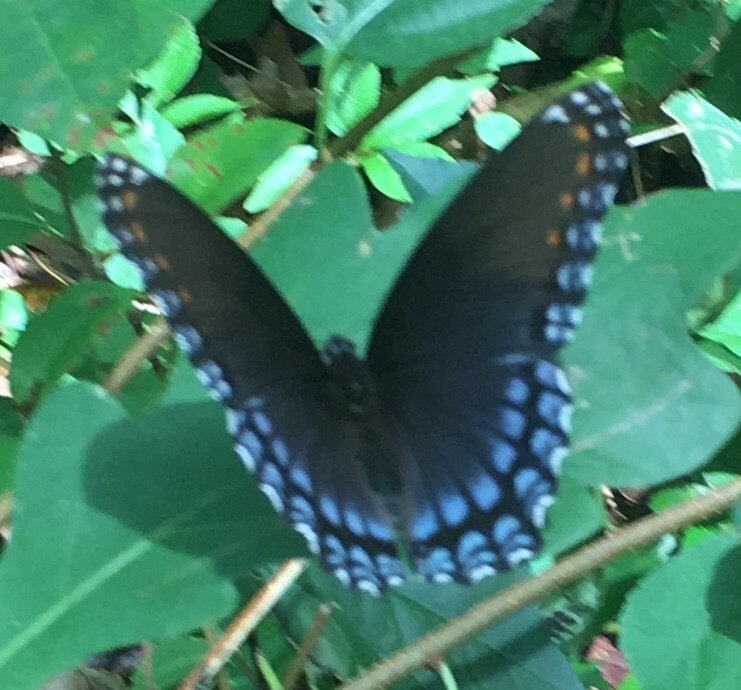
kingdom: Animalia
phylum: Arthropoda
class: Insecta
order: Lepidoptera
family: Nymphalidae
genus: Limenitis
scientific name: Limenitis astyanax
